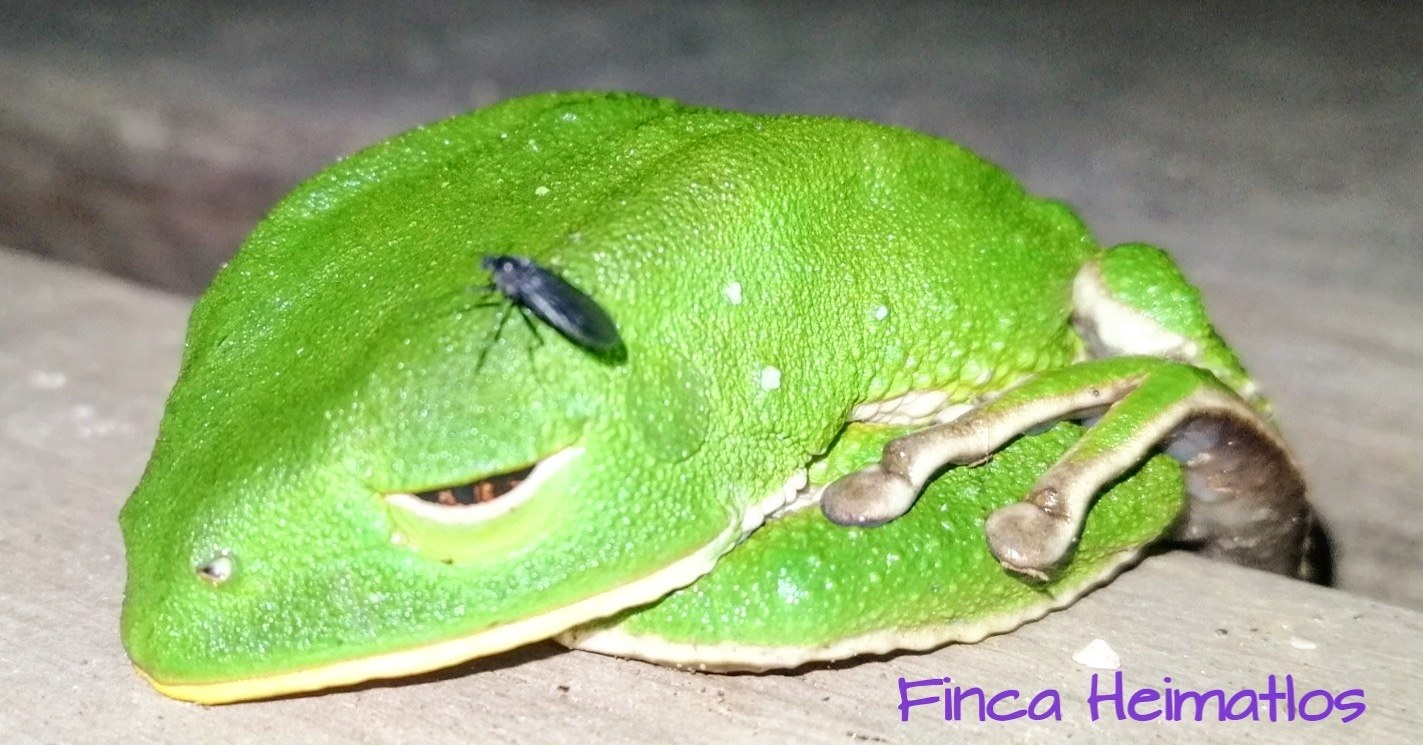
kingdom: Animalia
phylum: Chordata
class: Amphibia
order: Anura
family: Phyllomedusidae
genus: Phyllomedusa
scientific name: Phyllomedusa tarsius
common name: Brownbelly leaf frog
